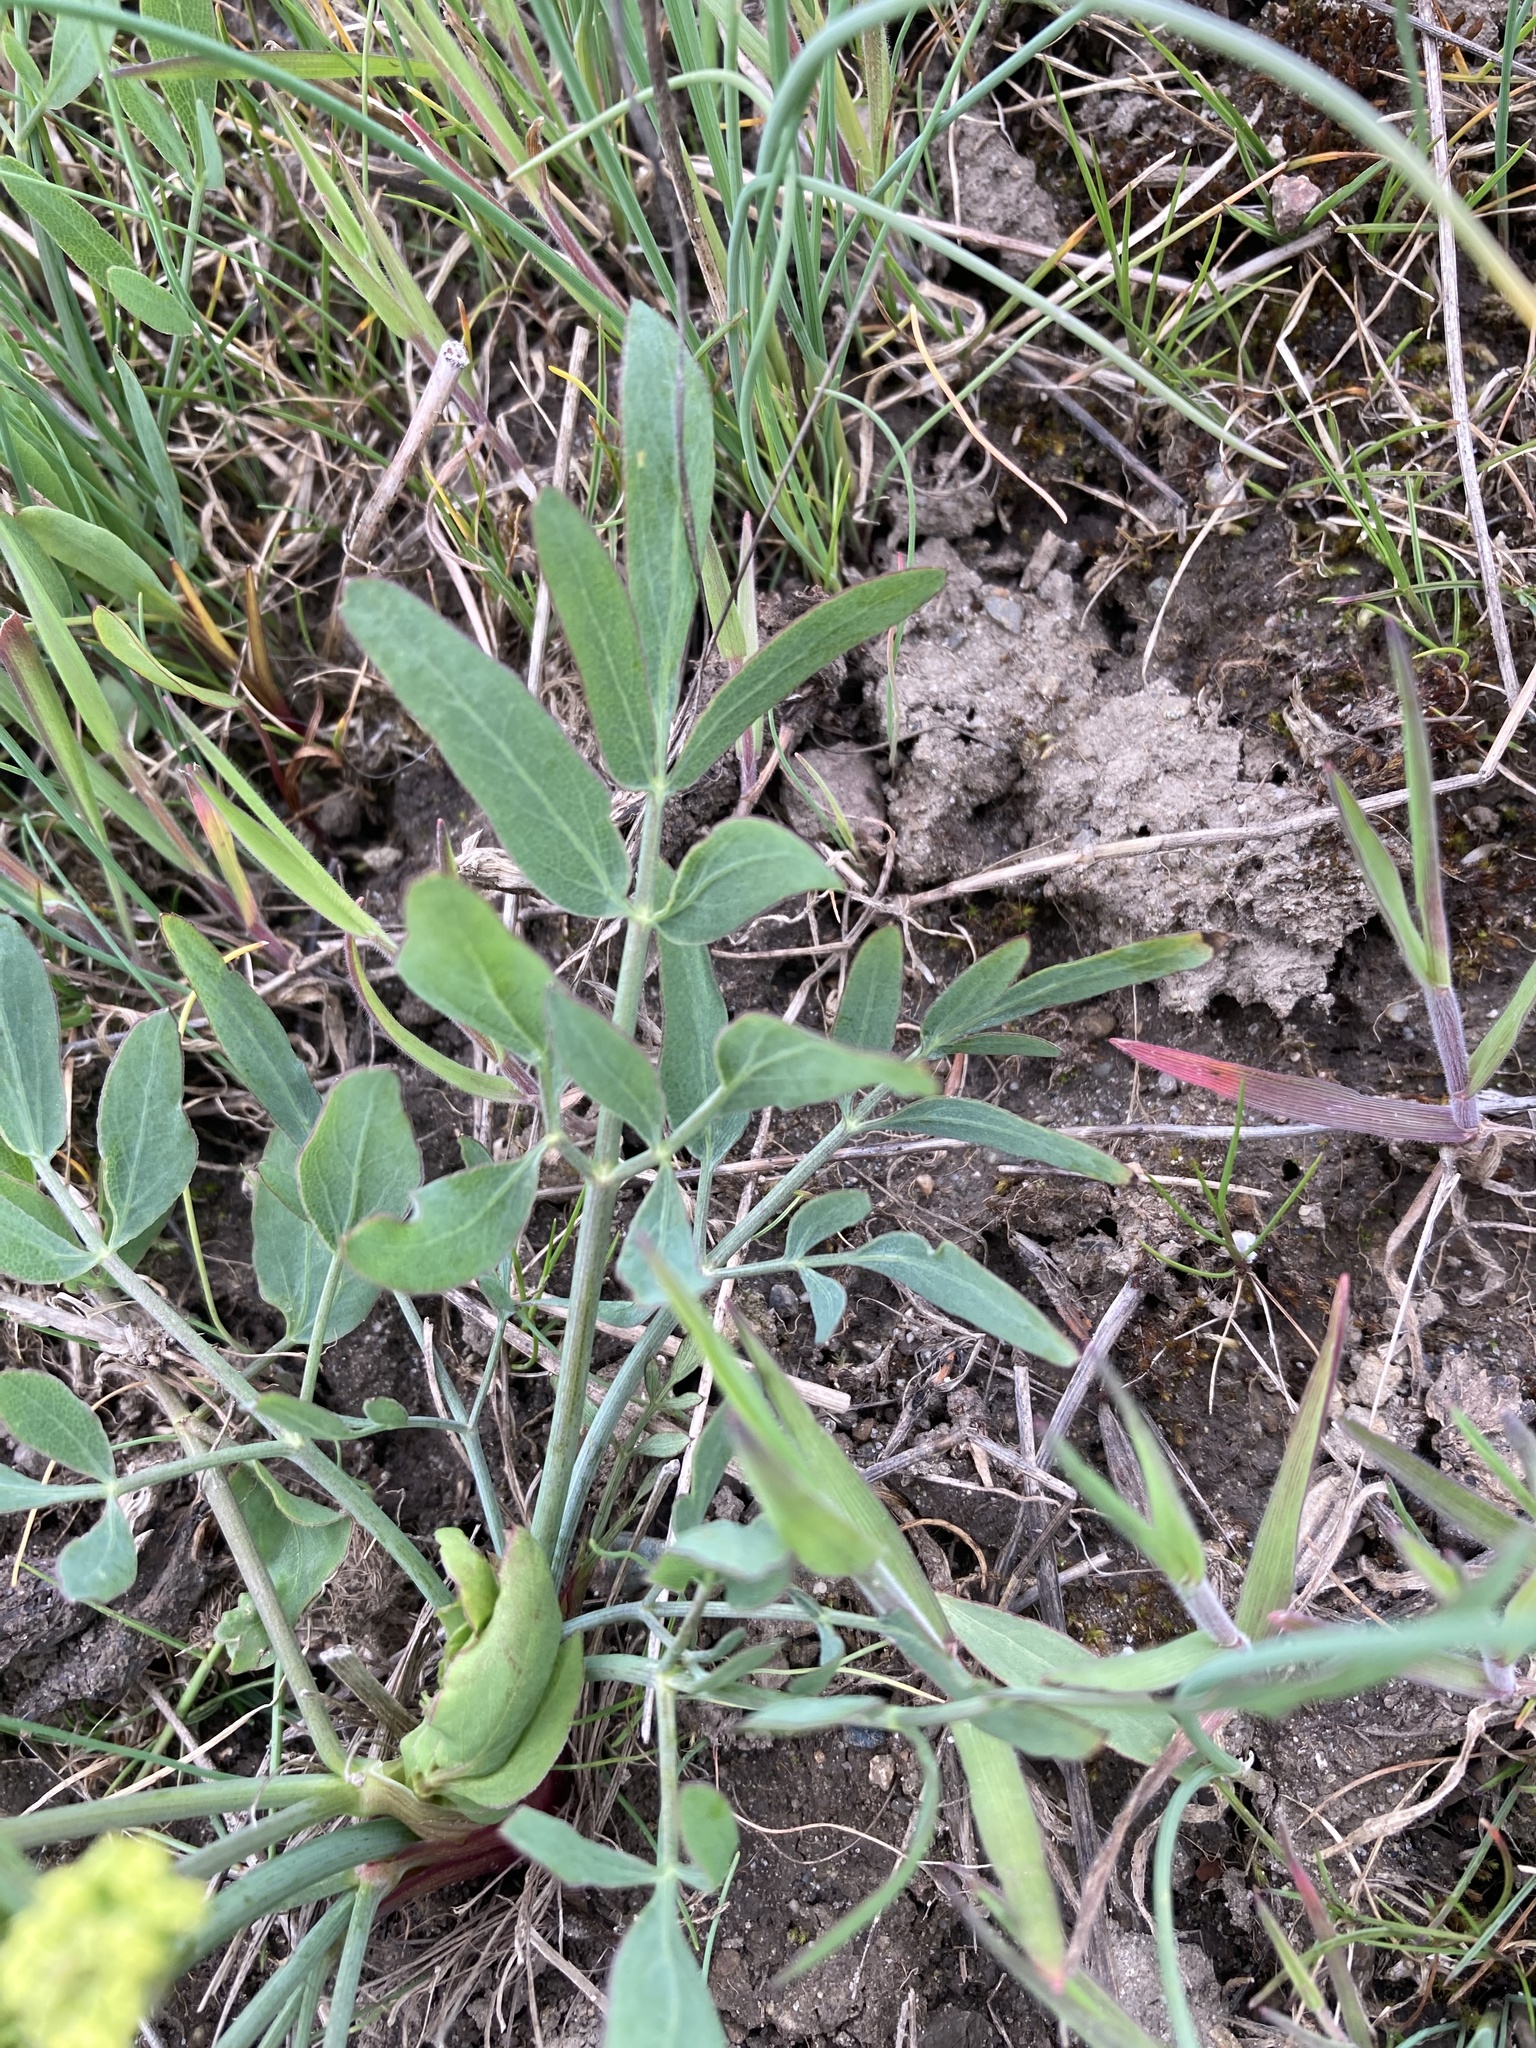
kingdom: Plantae
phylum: Tracheophyta
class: Magnoliopsida
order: Apiales
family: Apiaceae
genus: Lomatium
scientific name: Lomatium nudicaule
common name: Pestle lomatium
